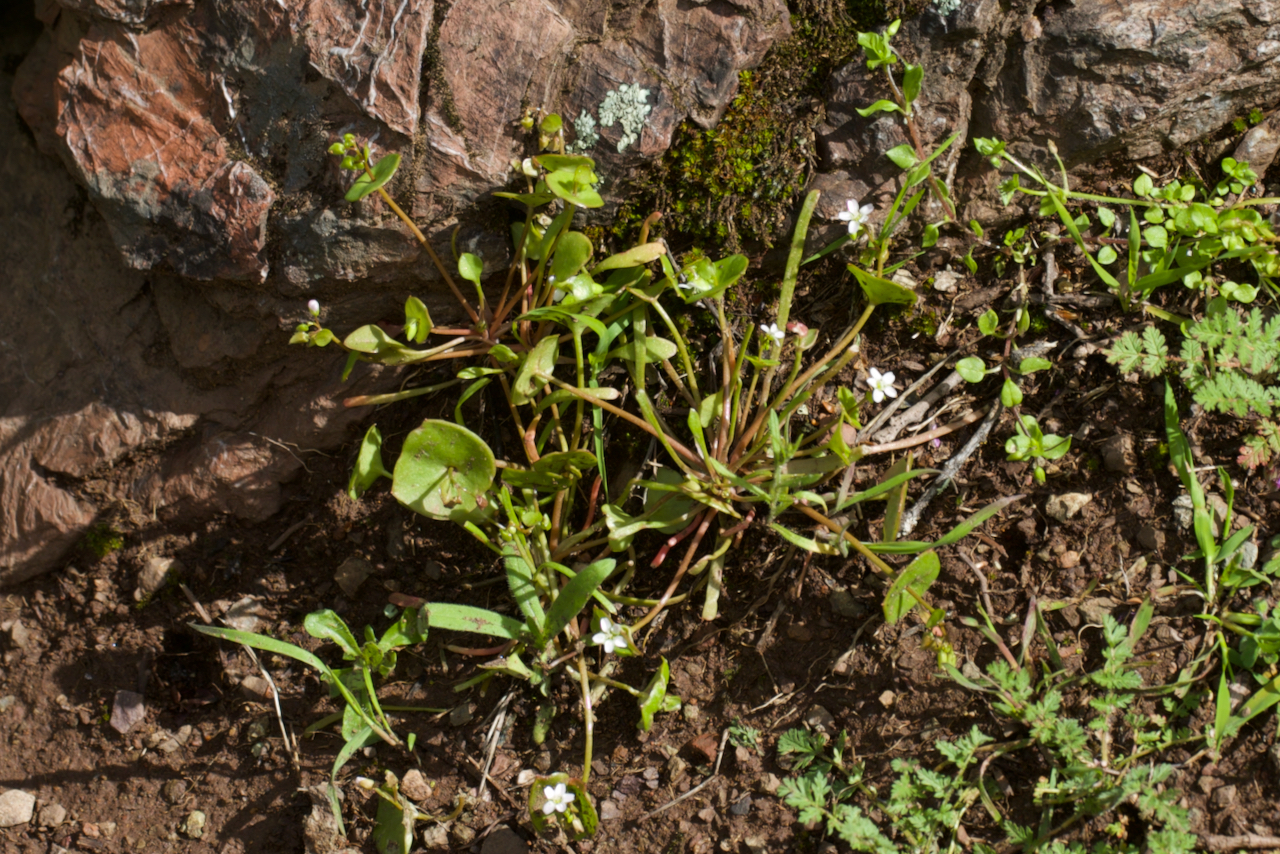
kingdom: Plantae
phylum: Tracheophyta
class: Magnoliopsida
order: Caryophyllales
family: Montiaceae
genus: Claytonia
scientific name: Claytonia parviflora
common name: Indian-lettuce
